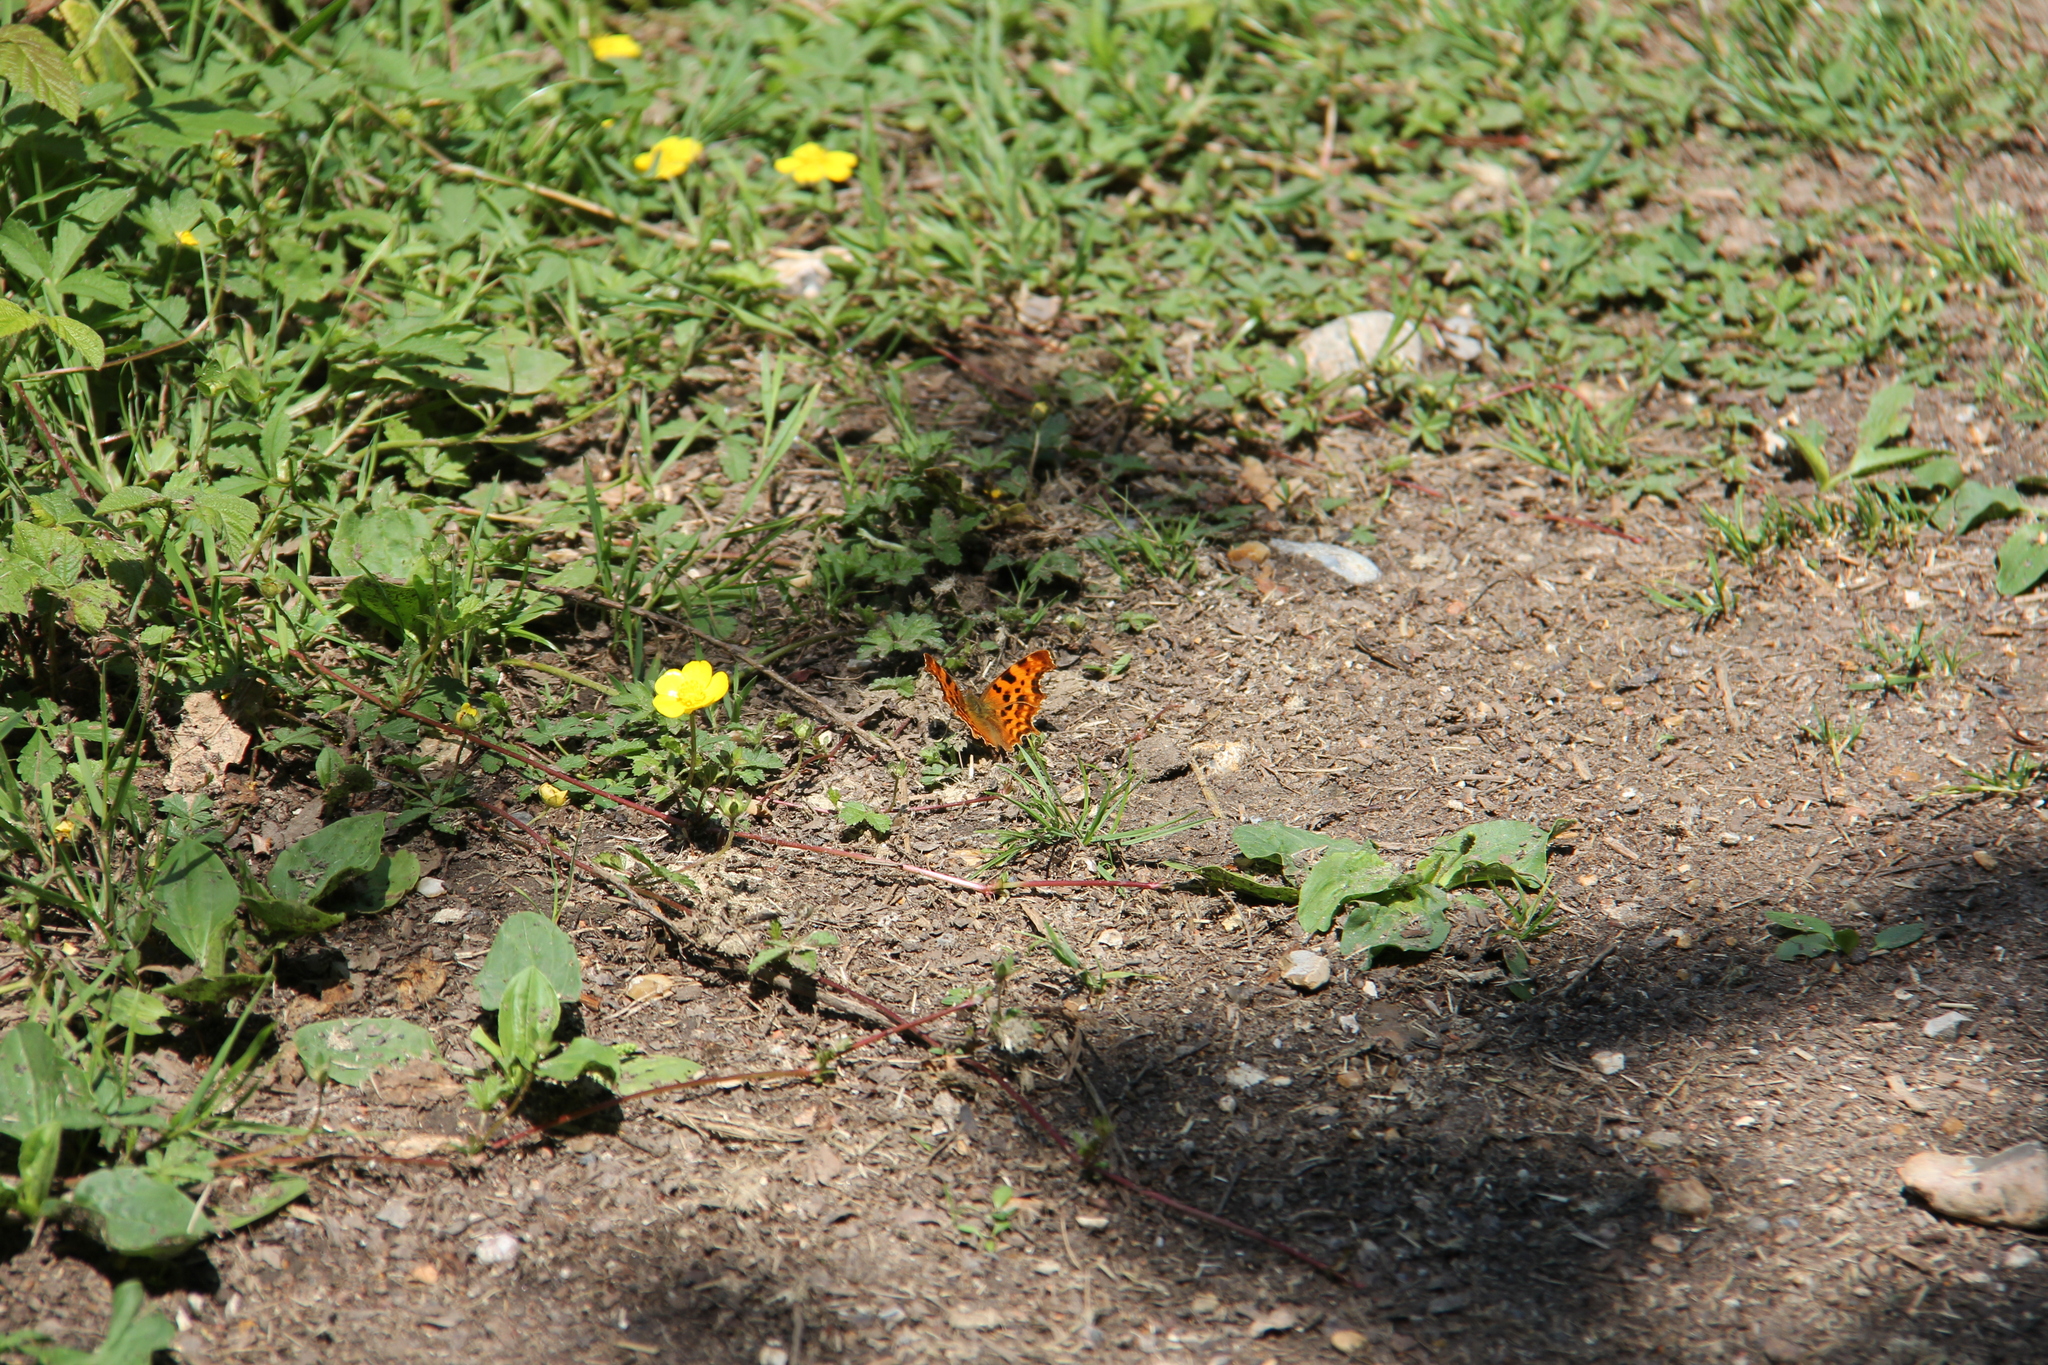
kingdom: Animalia
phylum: Arthropoda
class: Insecta
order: Lepidoptera
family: Nymphalidae
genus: Polygonia
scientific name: Polygonia c-album
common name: Comma
